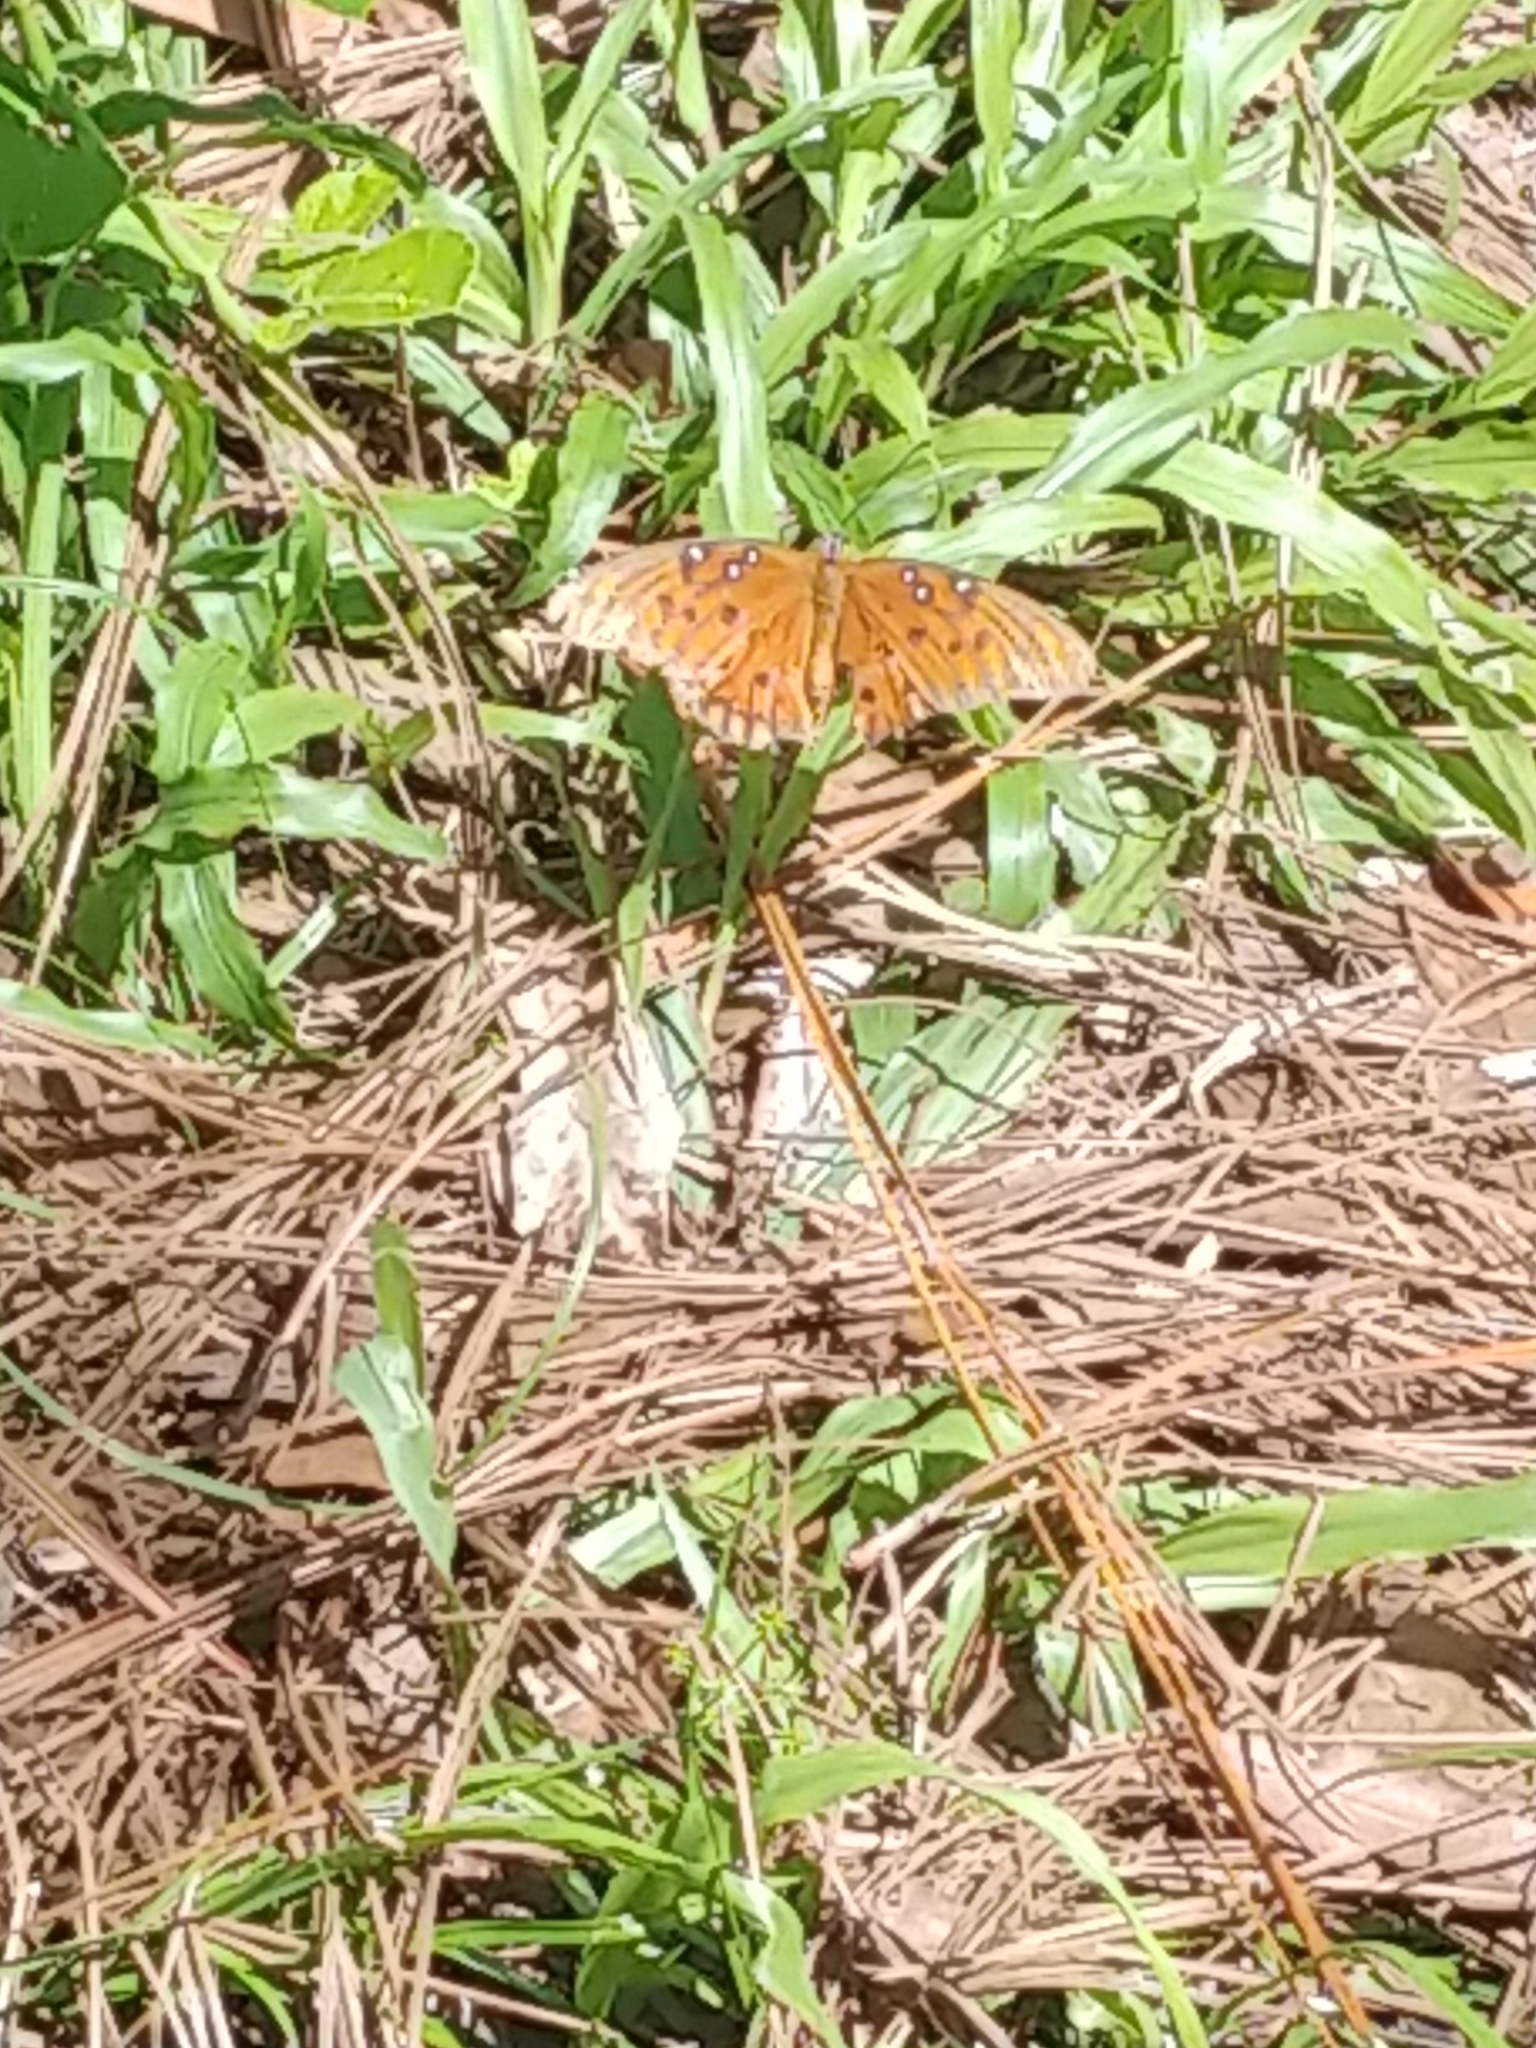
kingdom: Animalia
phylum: Arthropoda
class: Insecta
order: Lepidoptera
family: Nymphalidae
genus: Dione
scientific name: Dione vanillae
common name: Gulf fritillary
